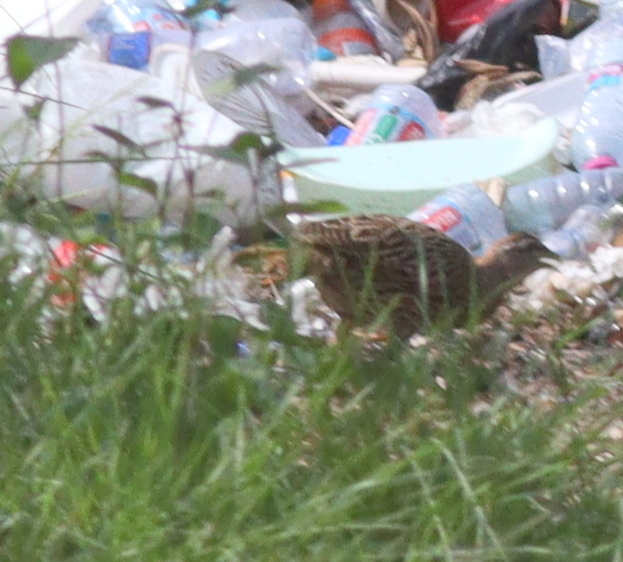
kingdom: Animalia
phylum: Chordata
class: Aves
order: Galliformes
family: Phasianidae
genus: Pternistis
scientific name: Pternistis bicalcaratus
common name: Double-spurred francolin
